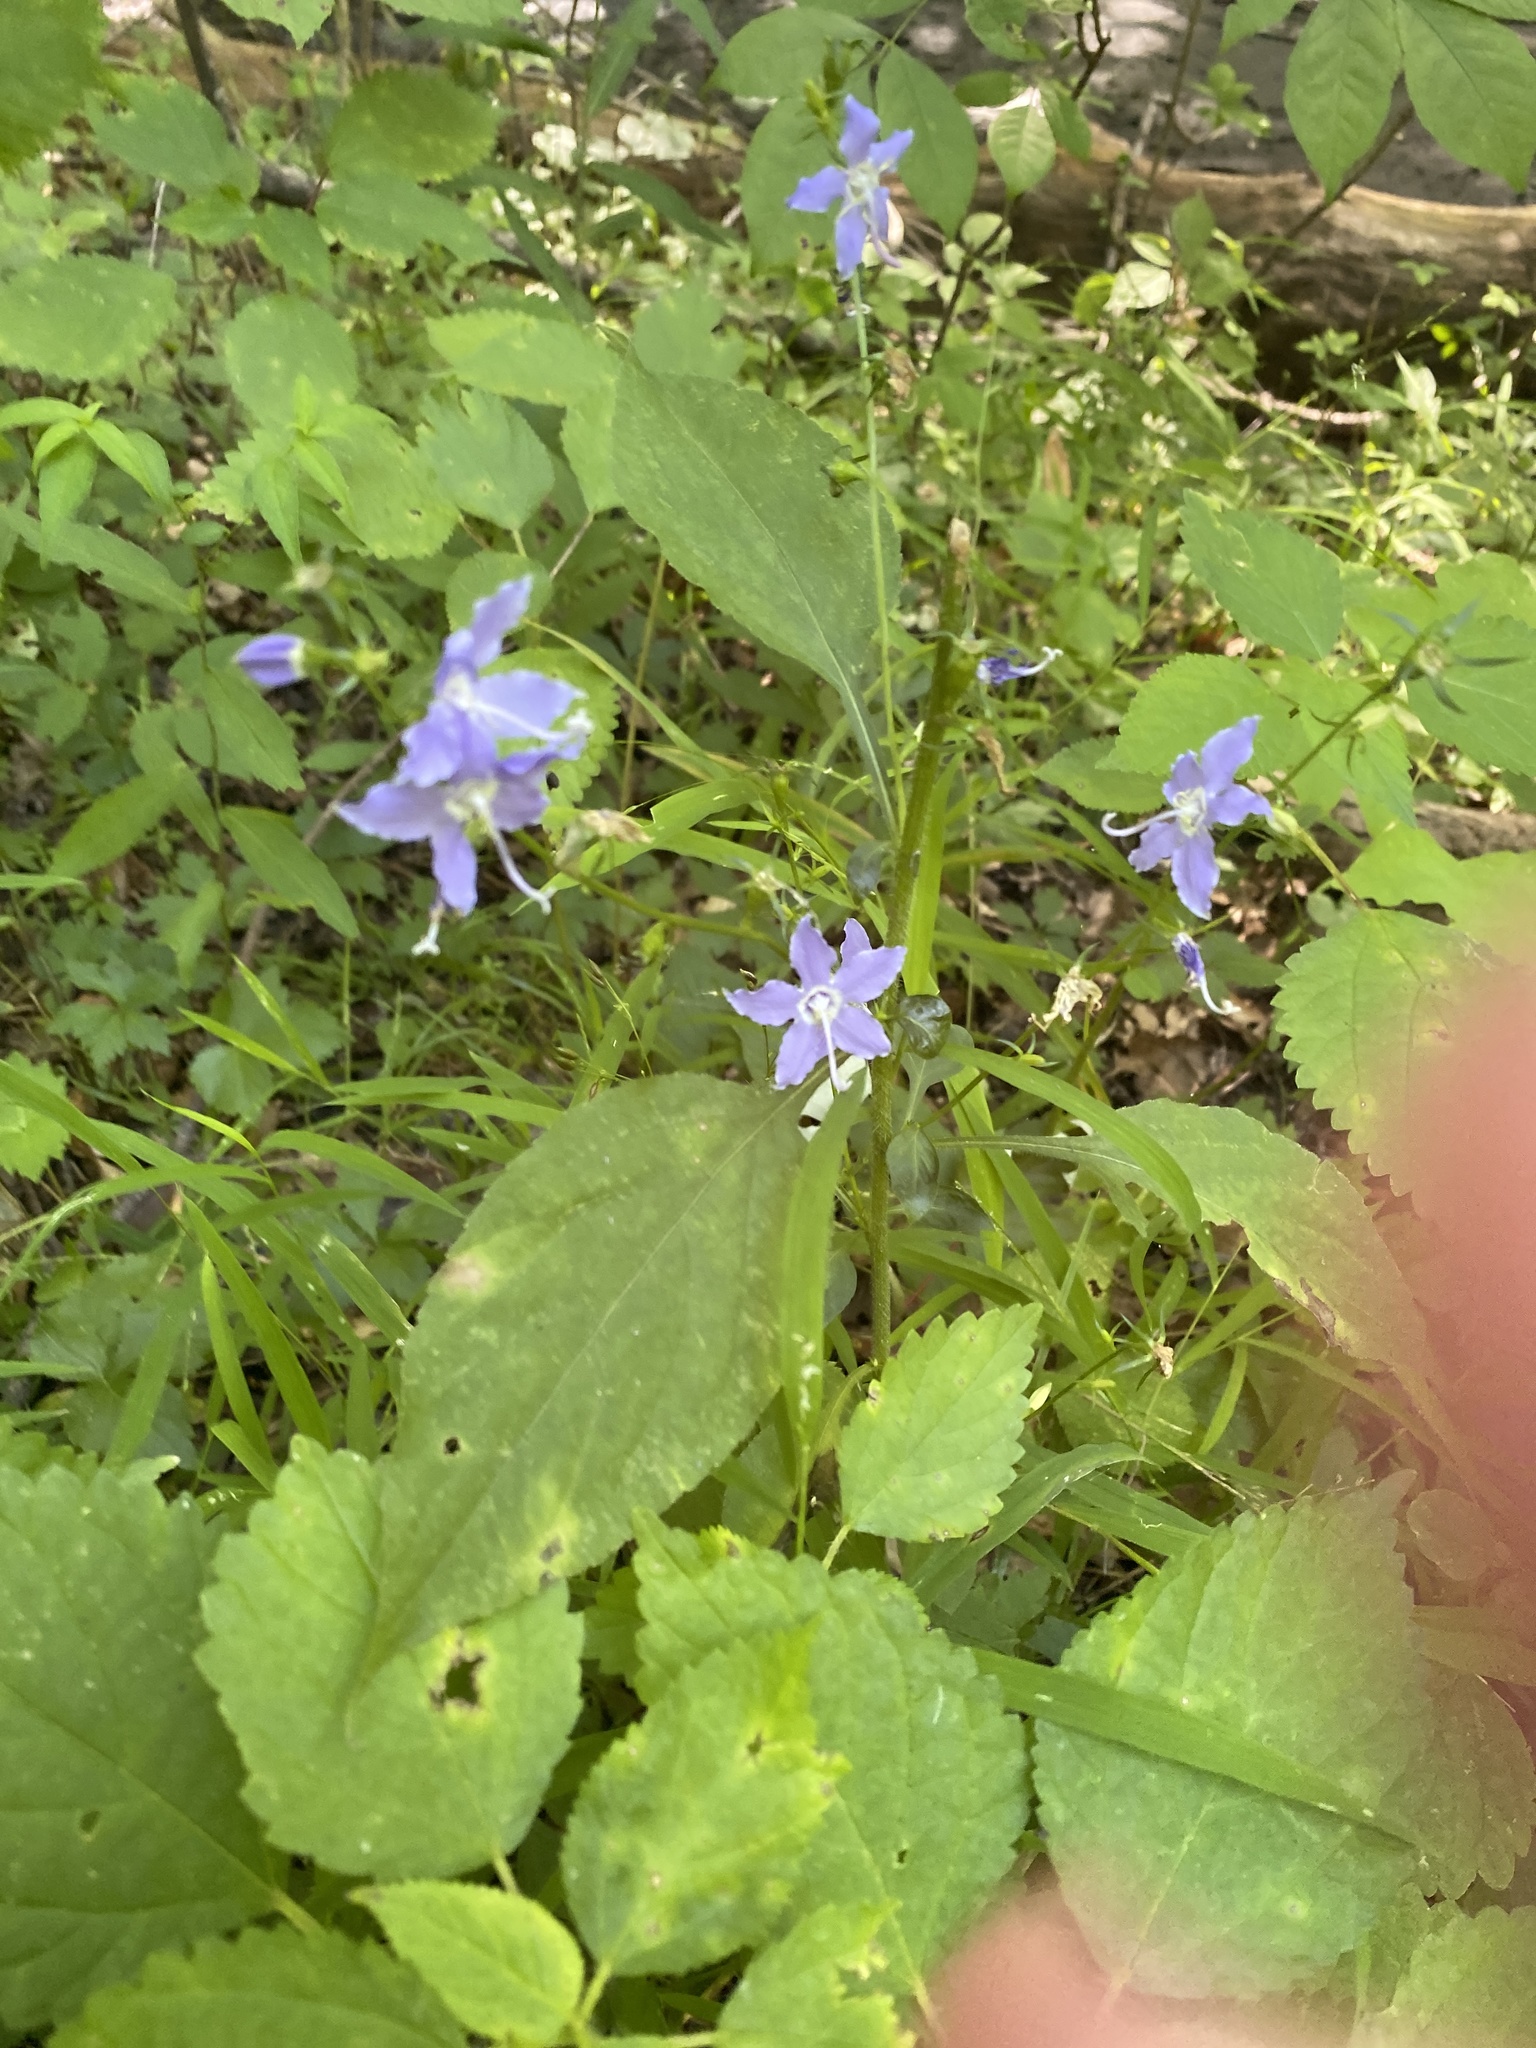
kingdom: Plantae
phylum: Tracheophyta
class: Magnoliopsida
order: Asterales
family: Campanulaceae
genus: Campanulastrum
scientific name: Campanulastrum americanum
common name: American bellflower
